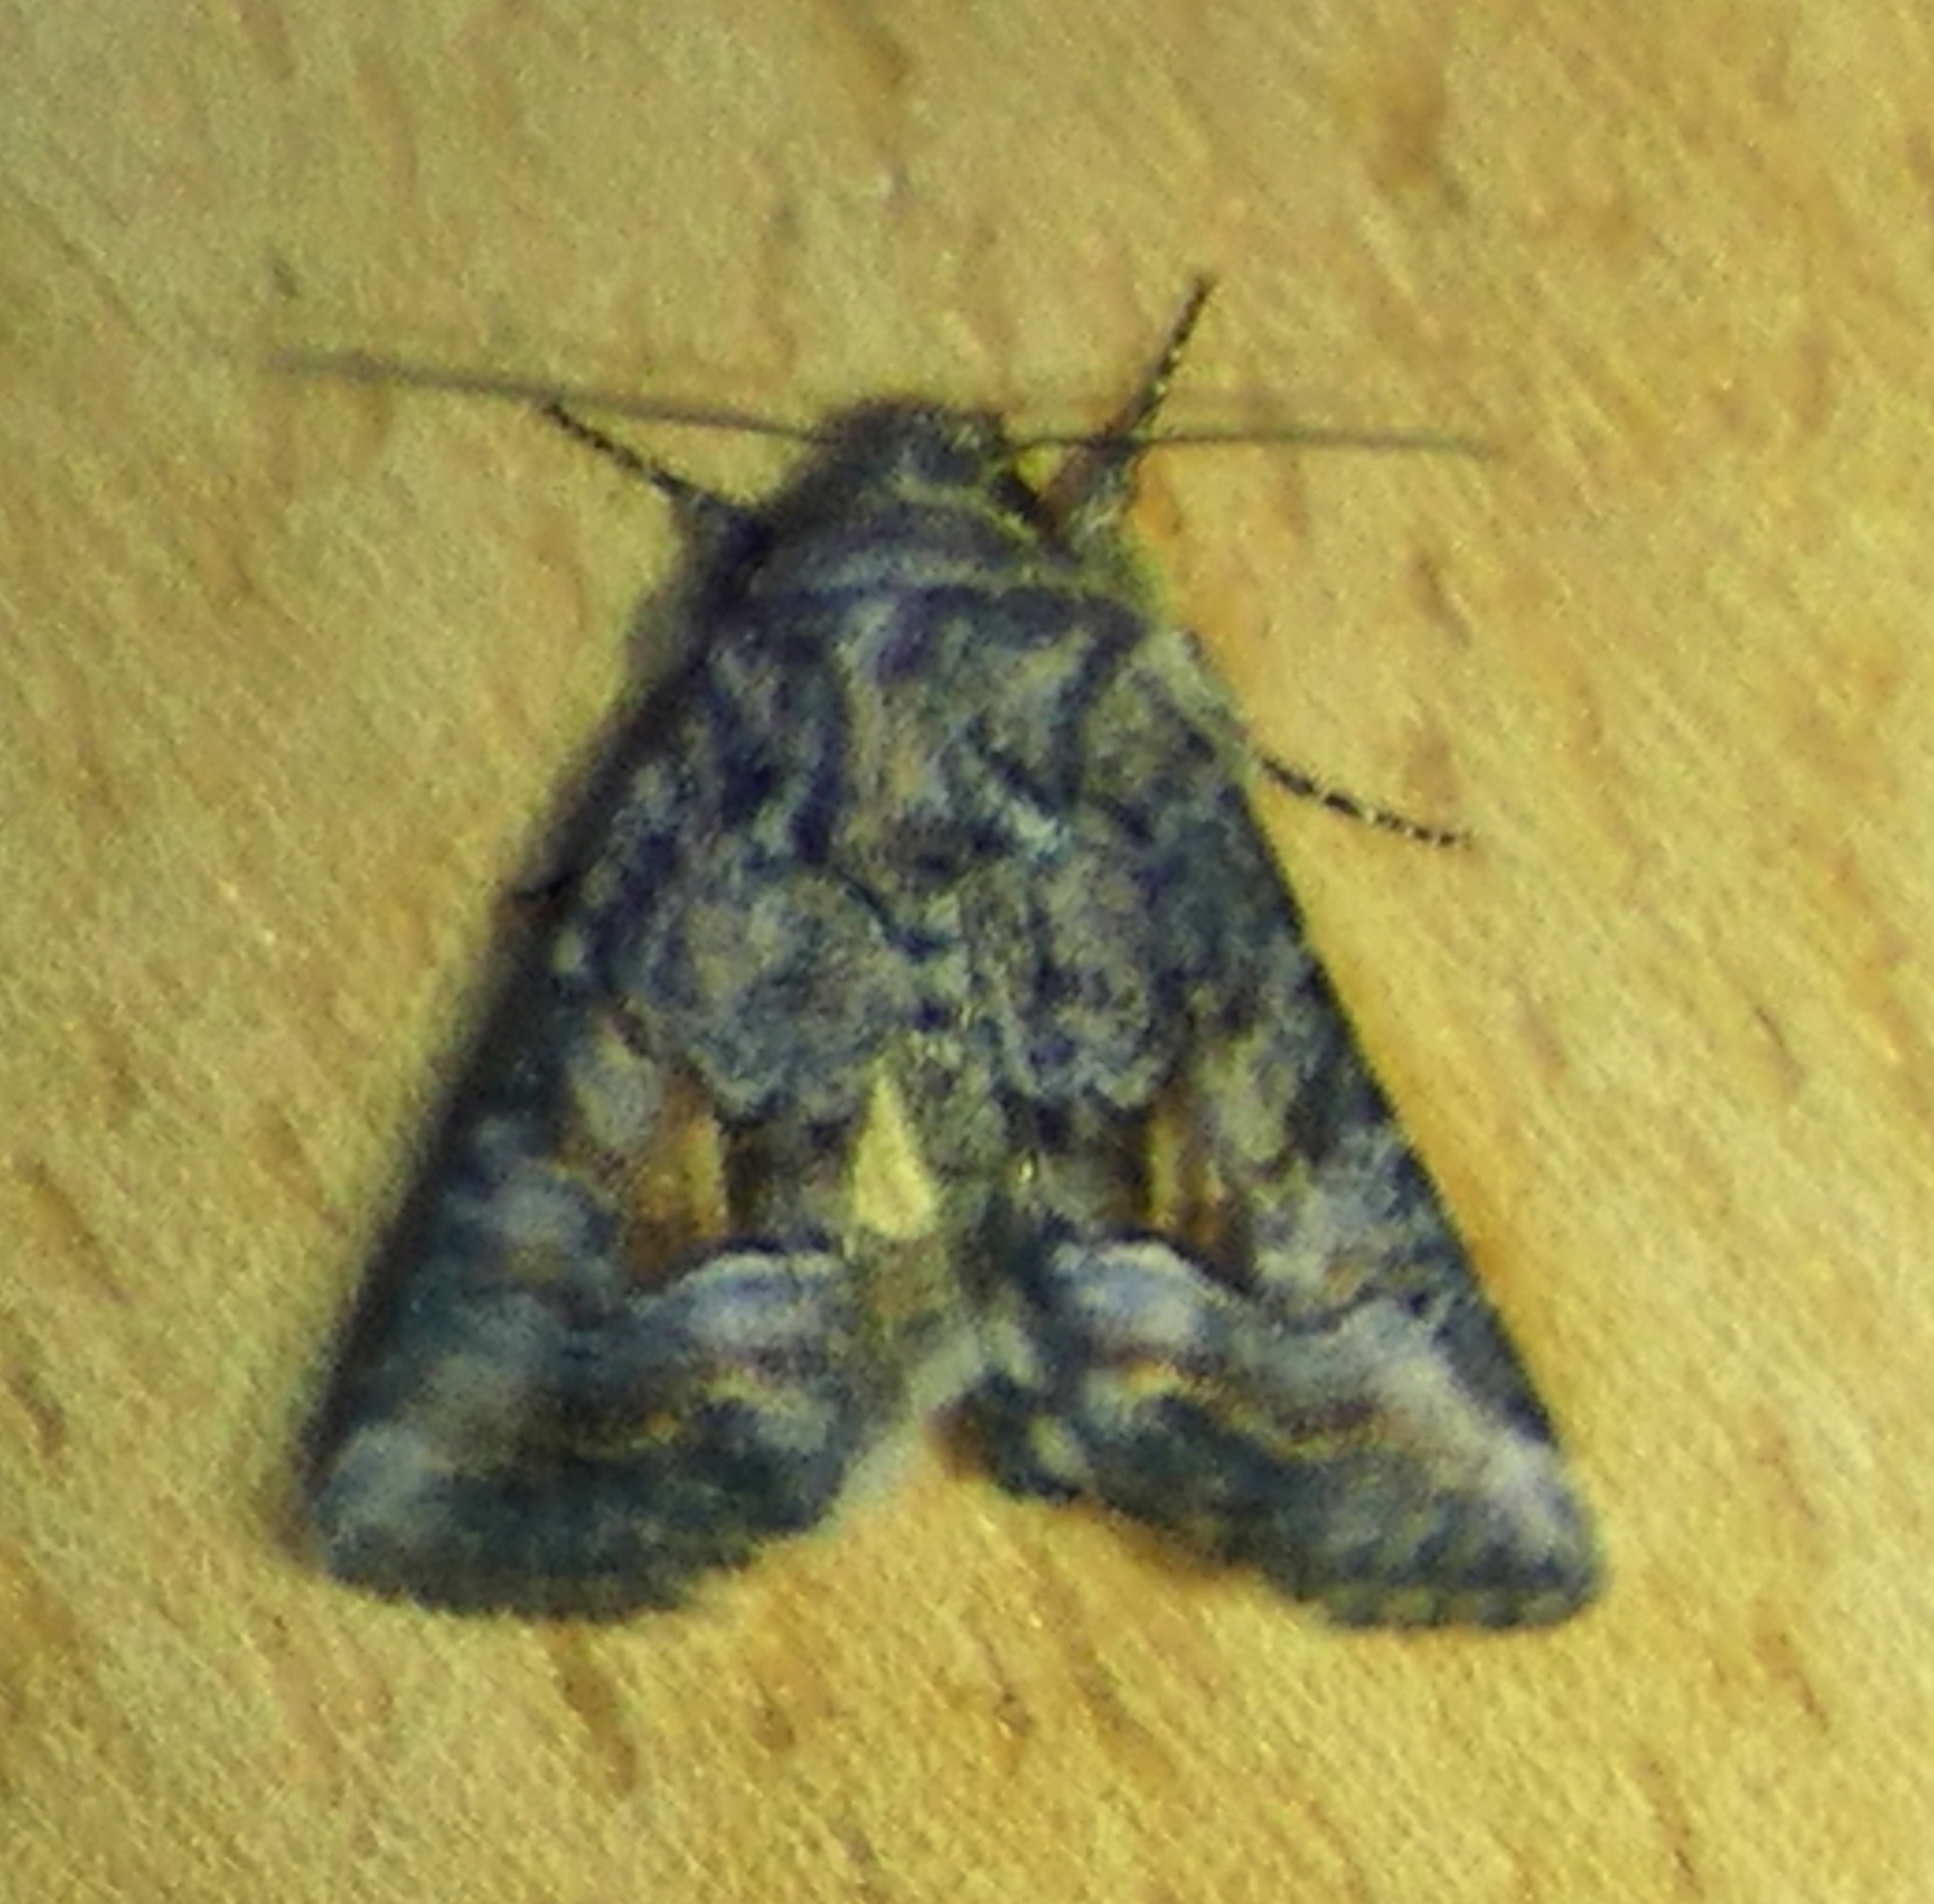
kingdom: Animalia
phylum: Arthropoda
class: Insecta
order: Lepidoptera
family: Noctuidae
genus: Pseudanarta
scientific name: Pseudanarta caeca
